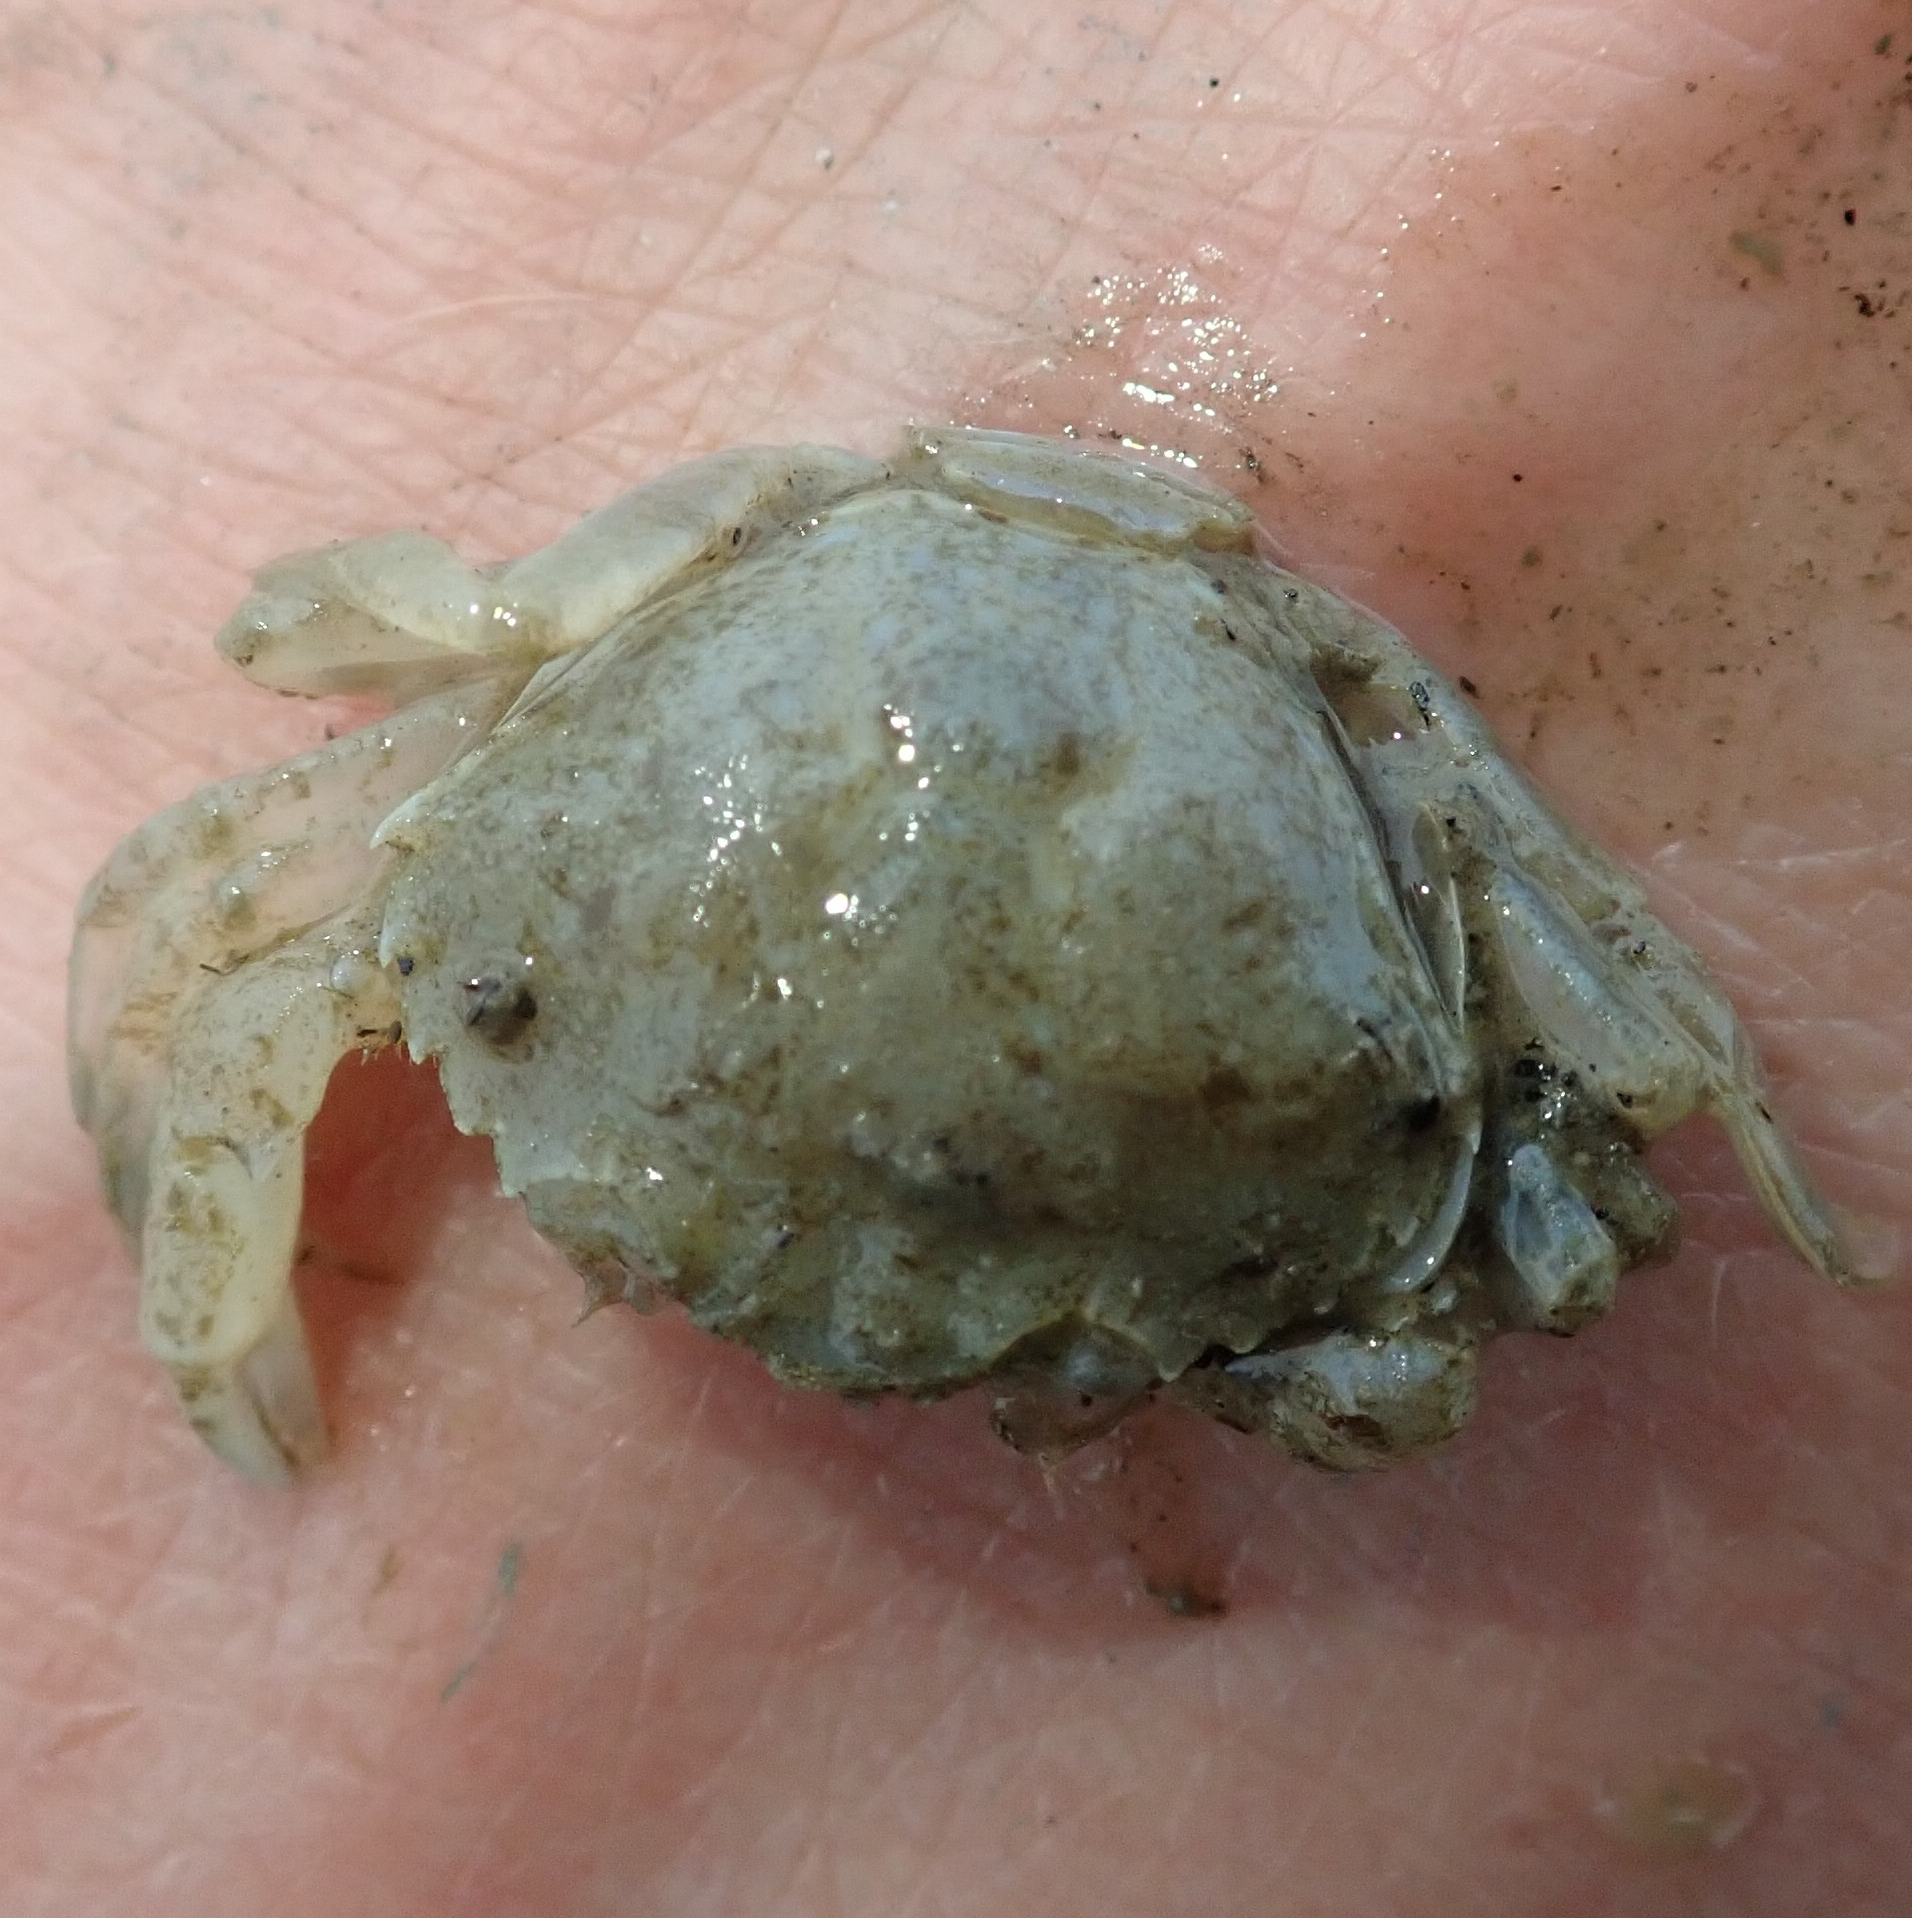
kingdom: Animalia
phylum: Arthropoda
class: Malacostraca
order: Decapoda
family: Carcinidae
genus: Carcinus
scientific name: Carcinus maenas
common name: European green crab
